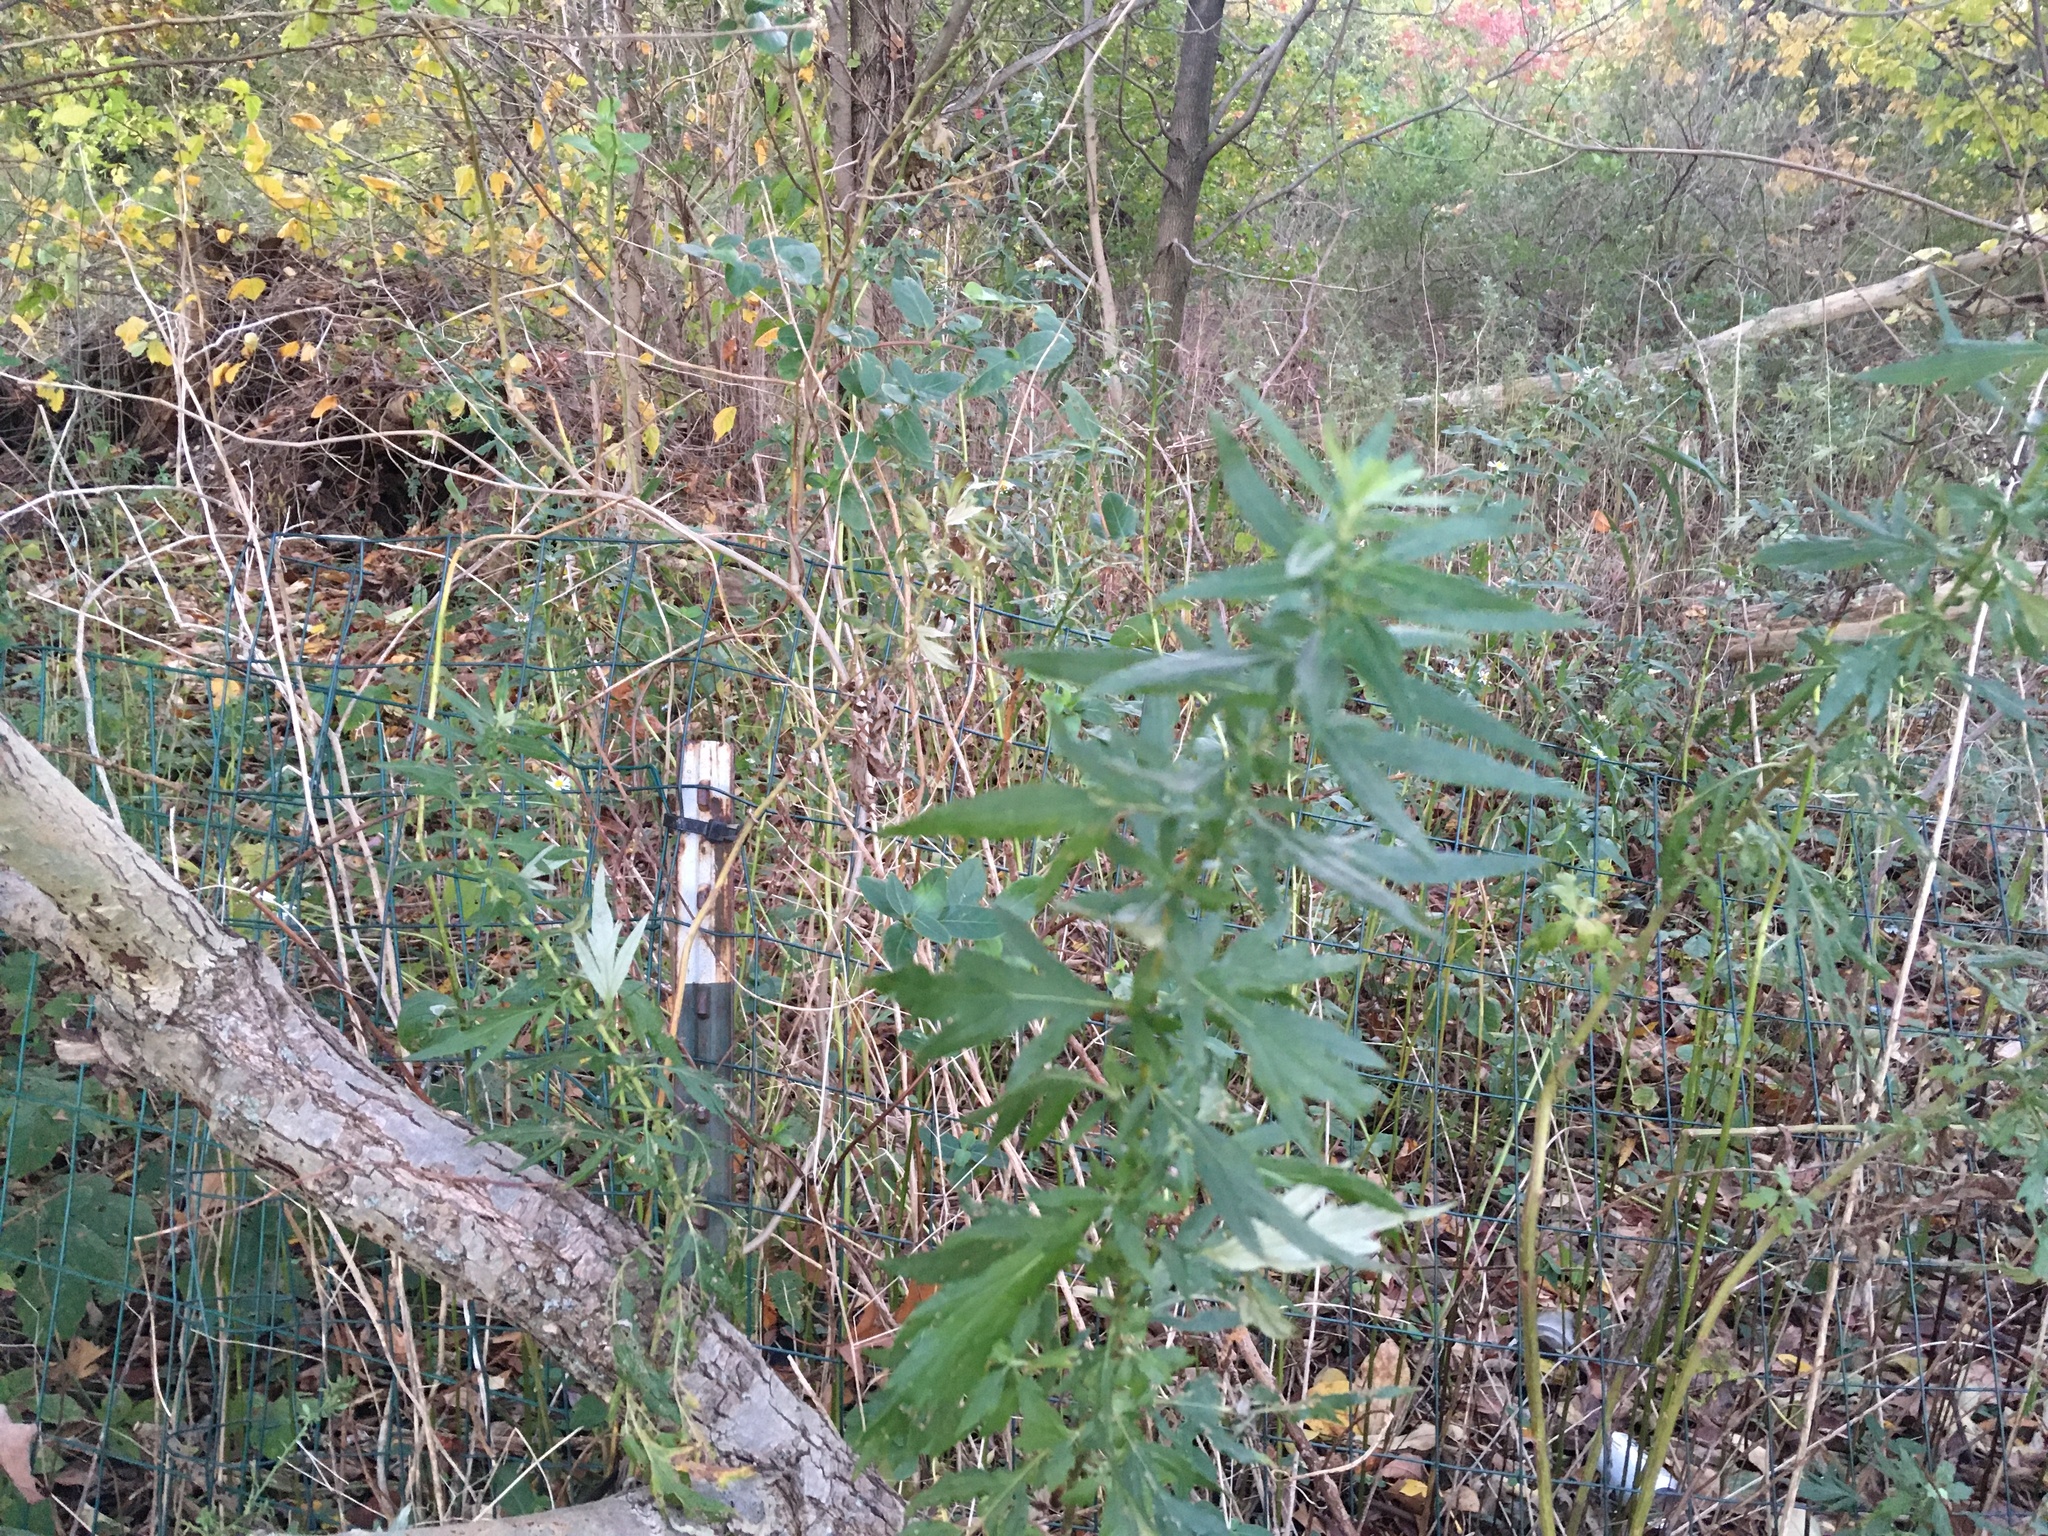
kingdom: Plantae
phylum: Tracheophyta
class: Magnoliopsida
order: Asterales
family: Asteraceae
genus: Artemisia
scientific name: Artemisia vulgaris
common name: Mugwort
